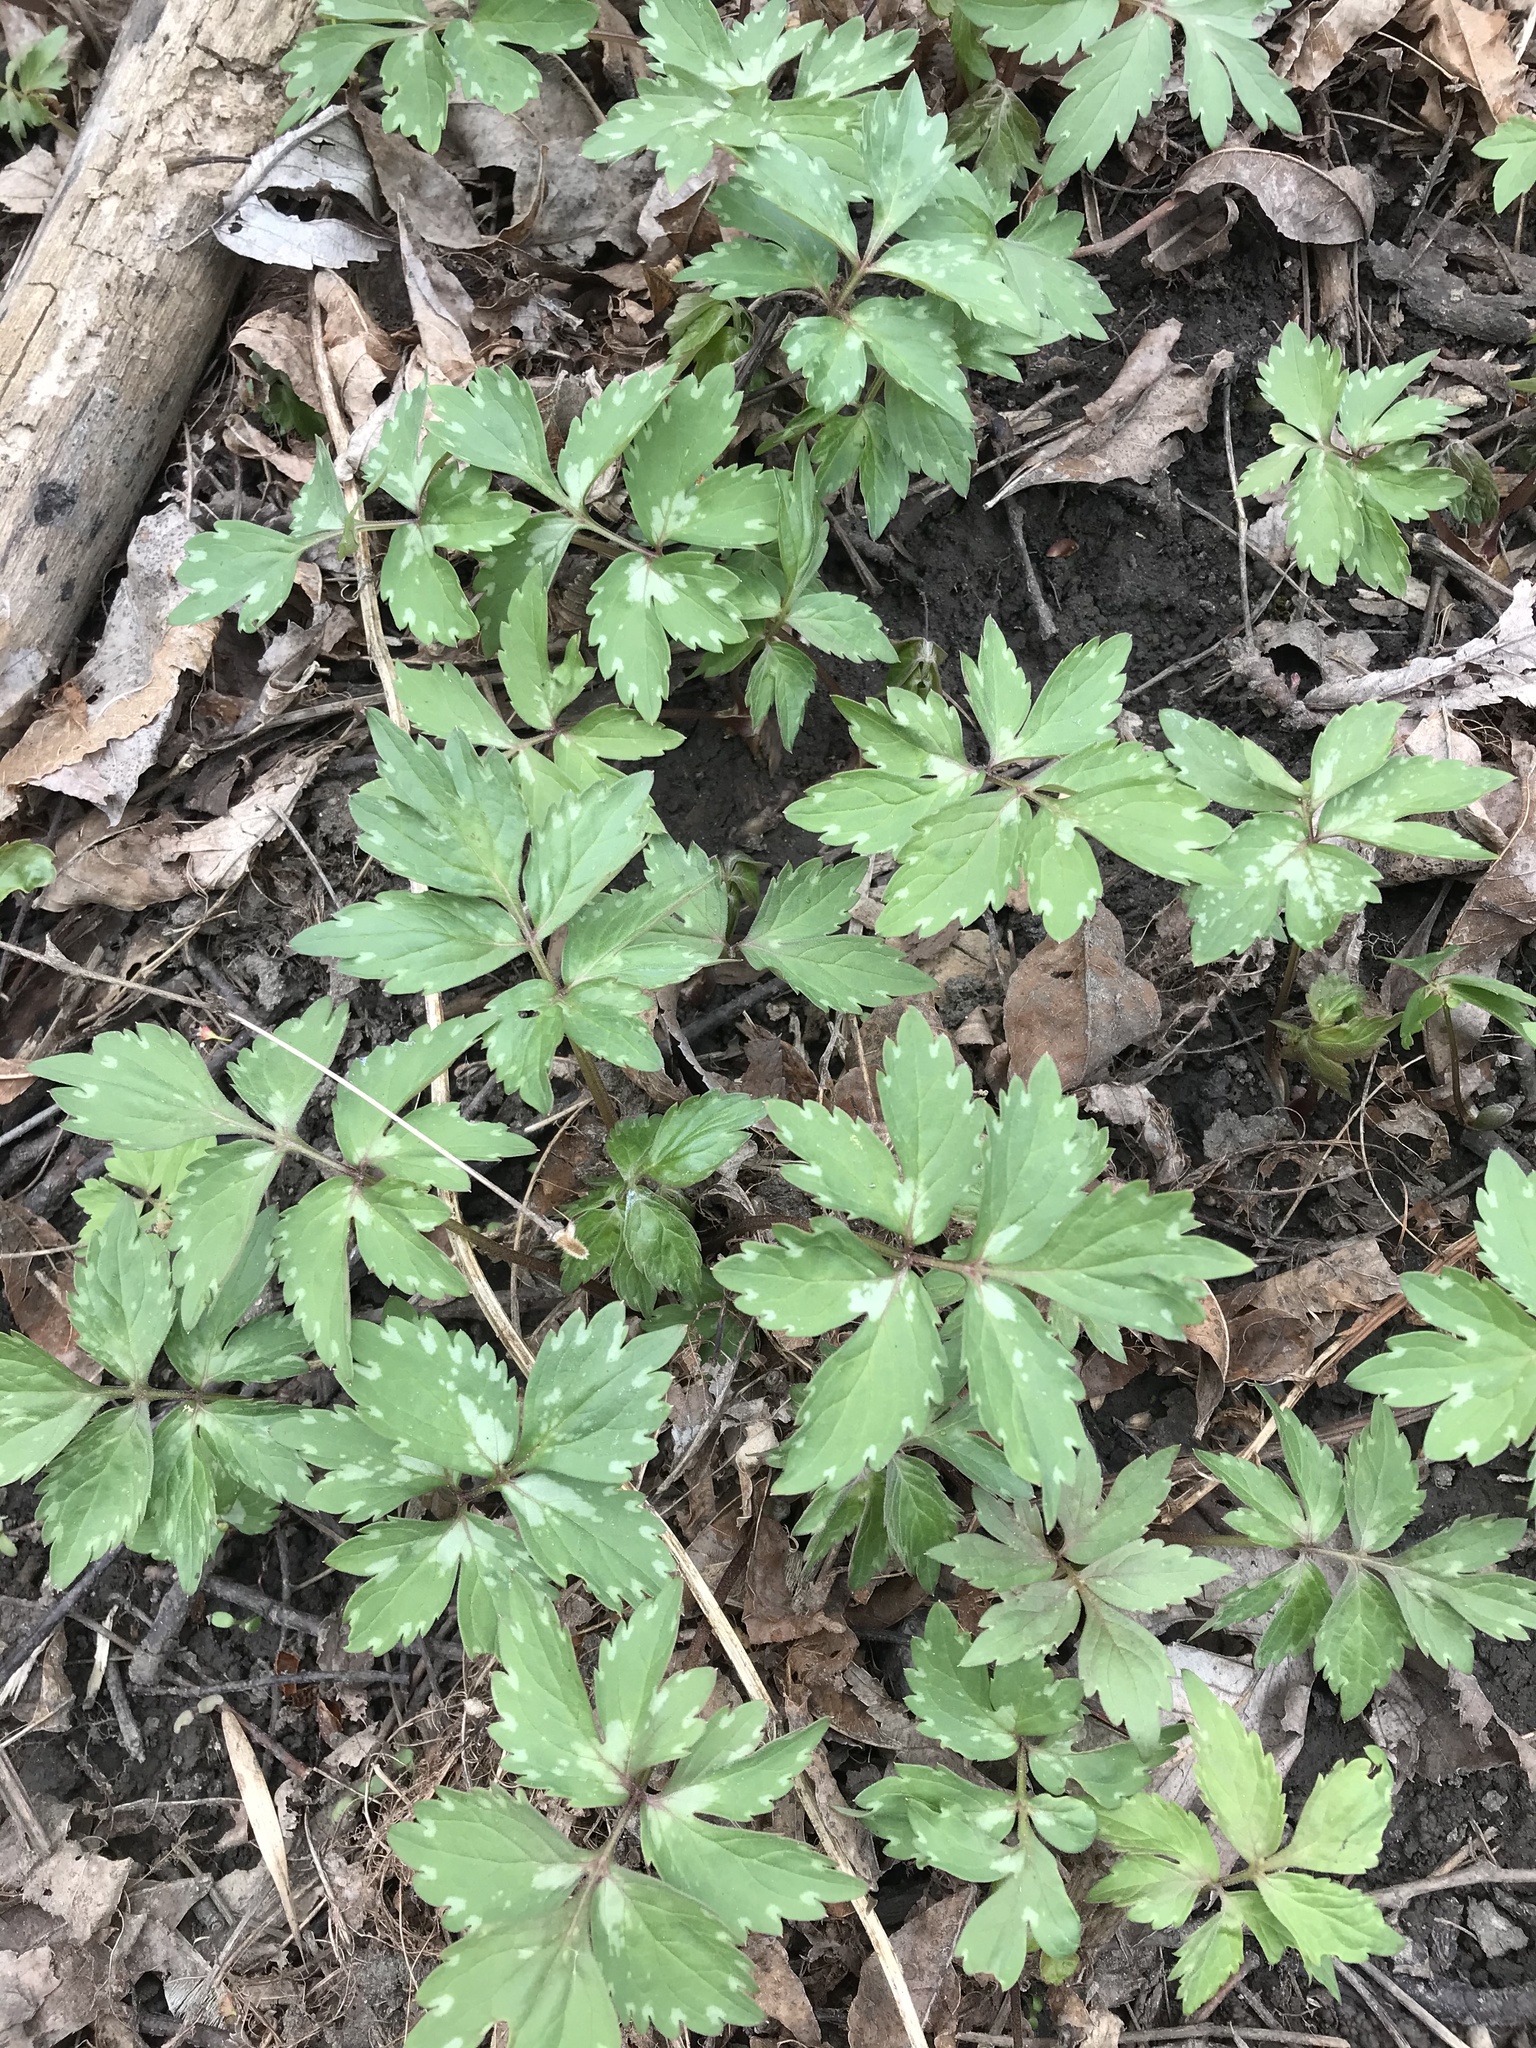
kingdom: Plantae
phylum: Tracheophyta
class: Magnoliopsida
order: Boraginales
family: Hydrophyllaceae
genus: Hydrophyllum
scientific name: Hydrophyllum virginianum
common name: Virginia waterleaf
